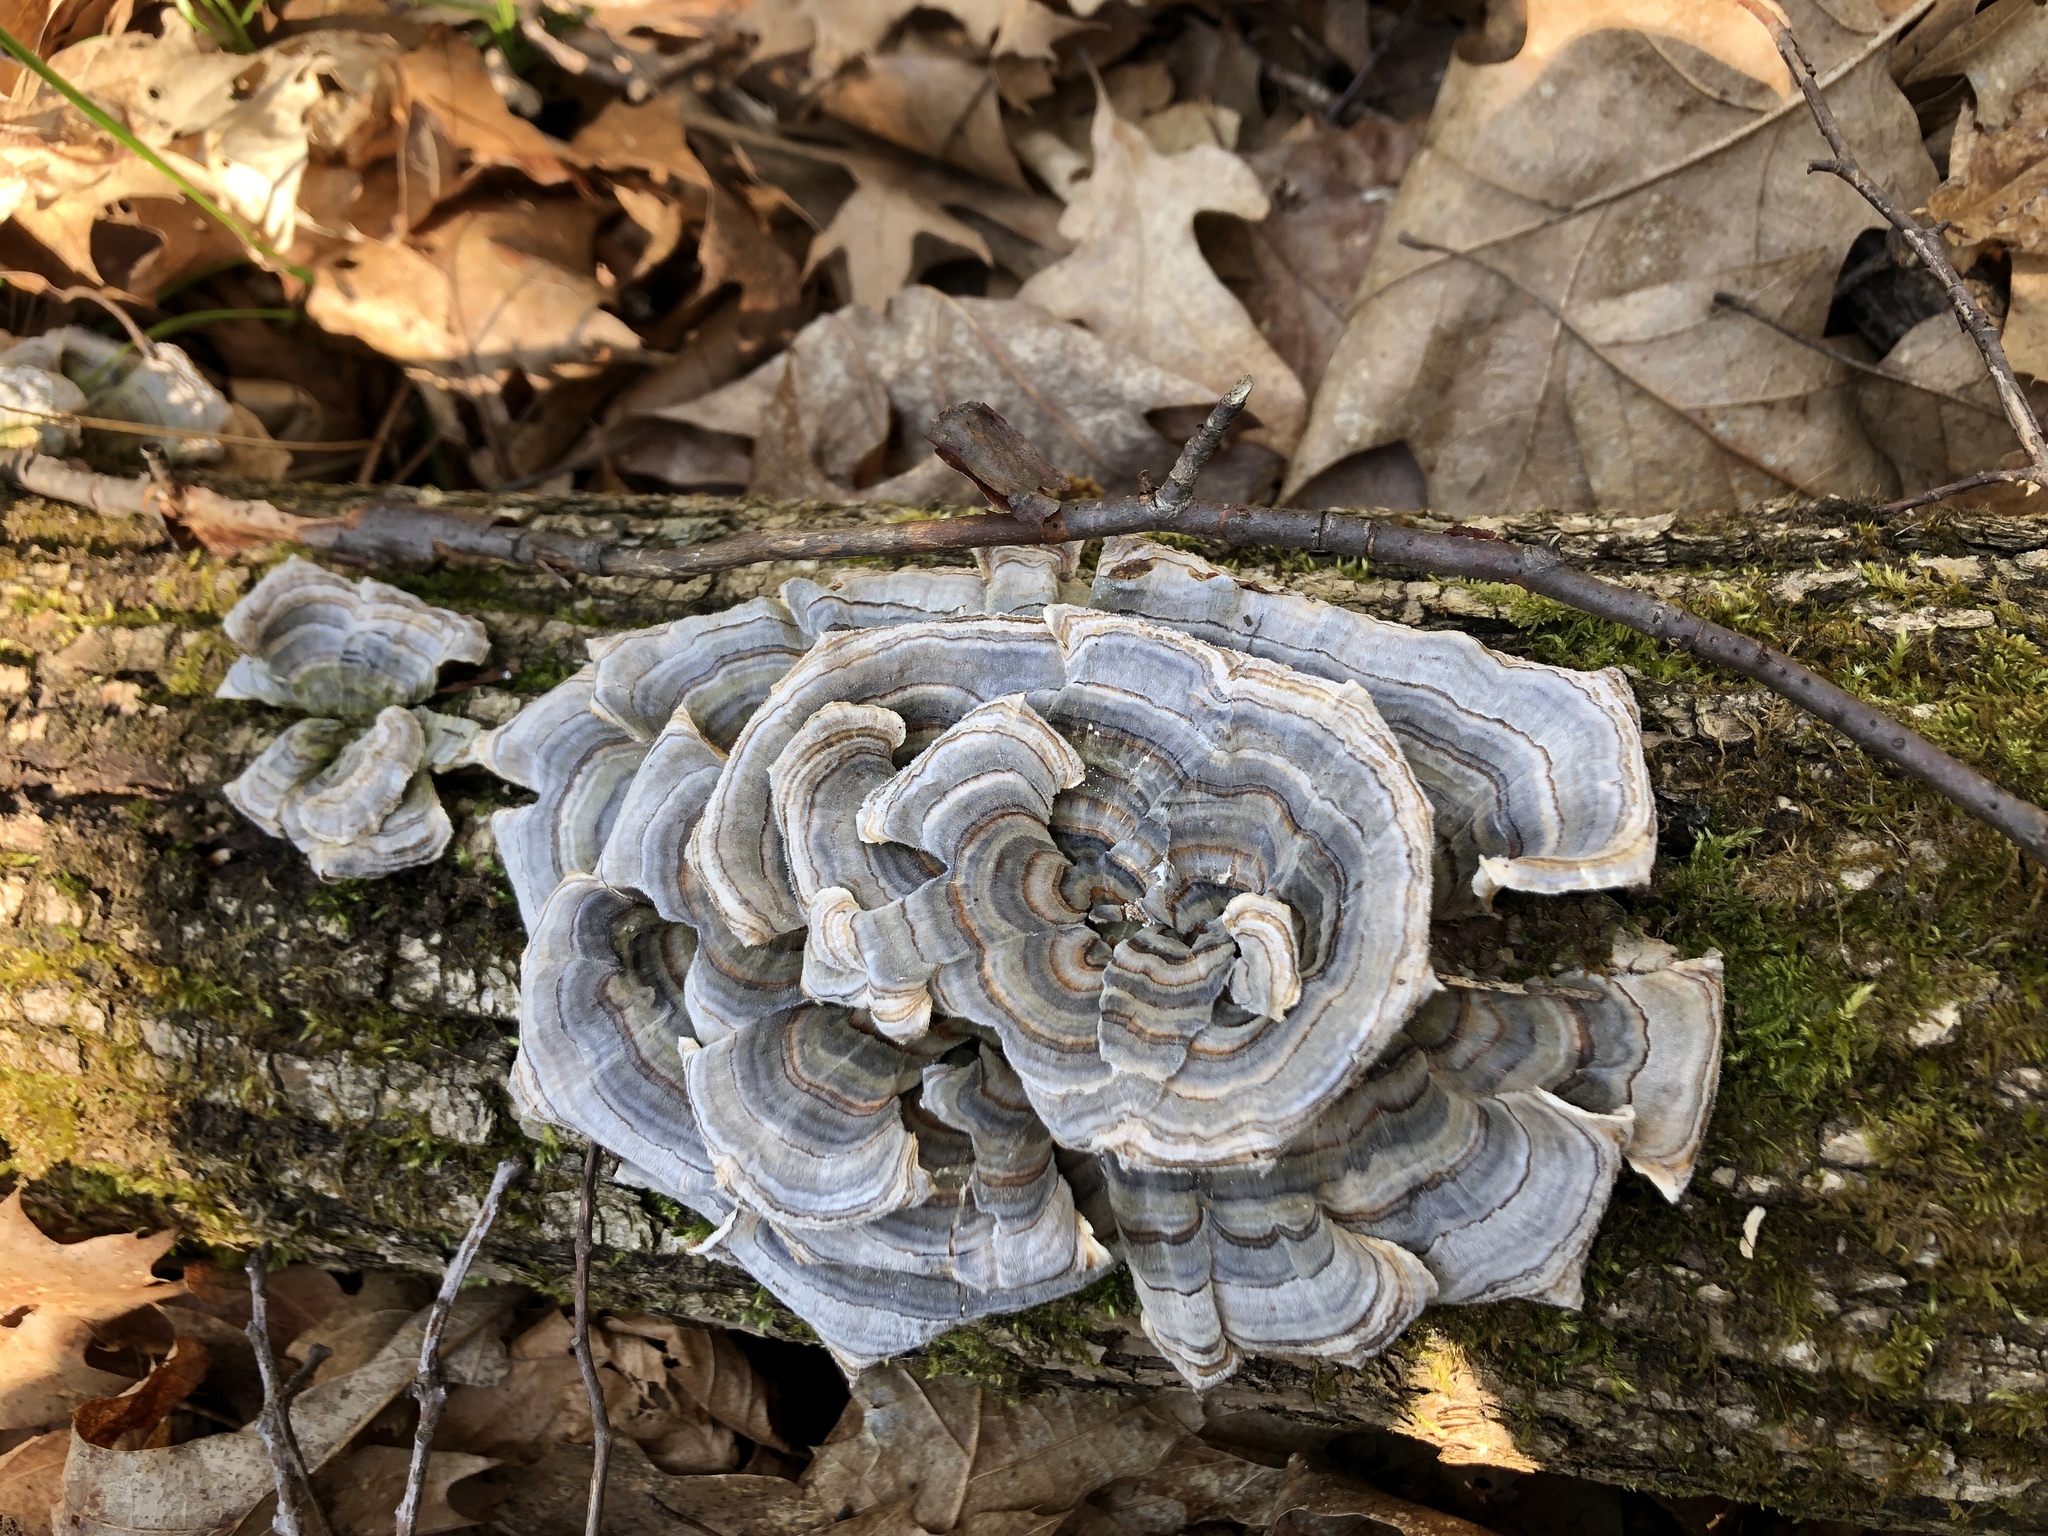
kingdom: Fungi
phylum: Basidiomycota
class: Agaricomycetes
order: Polyporales
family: Polyporaceae
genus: Trametes
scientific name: Trametes versicolor
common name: Turkeytail
